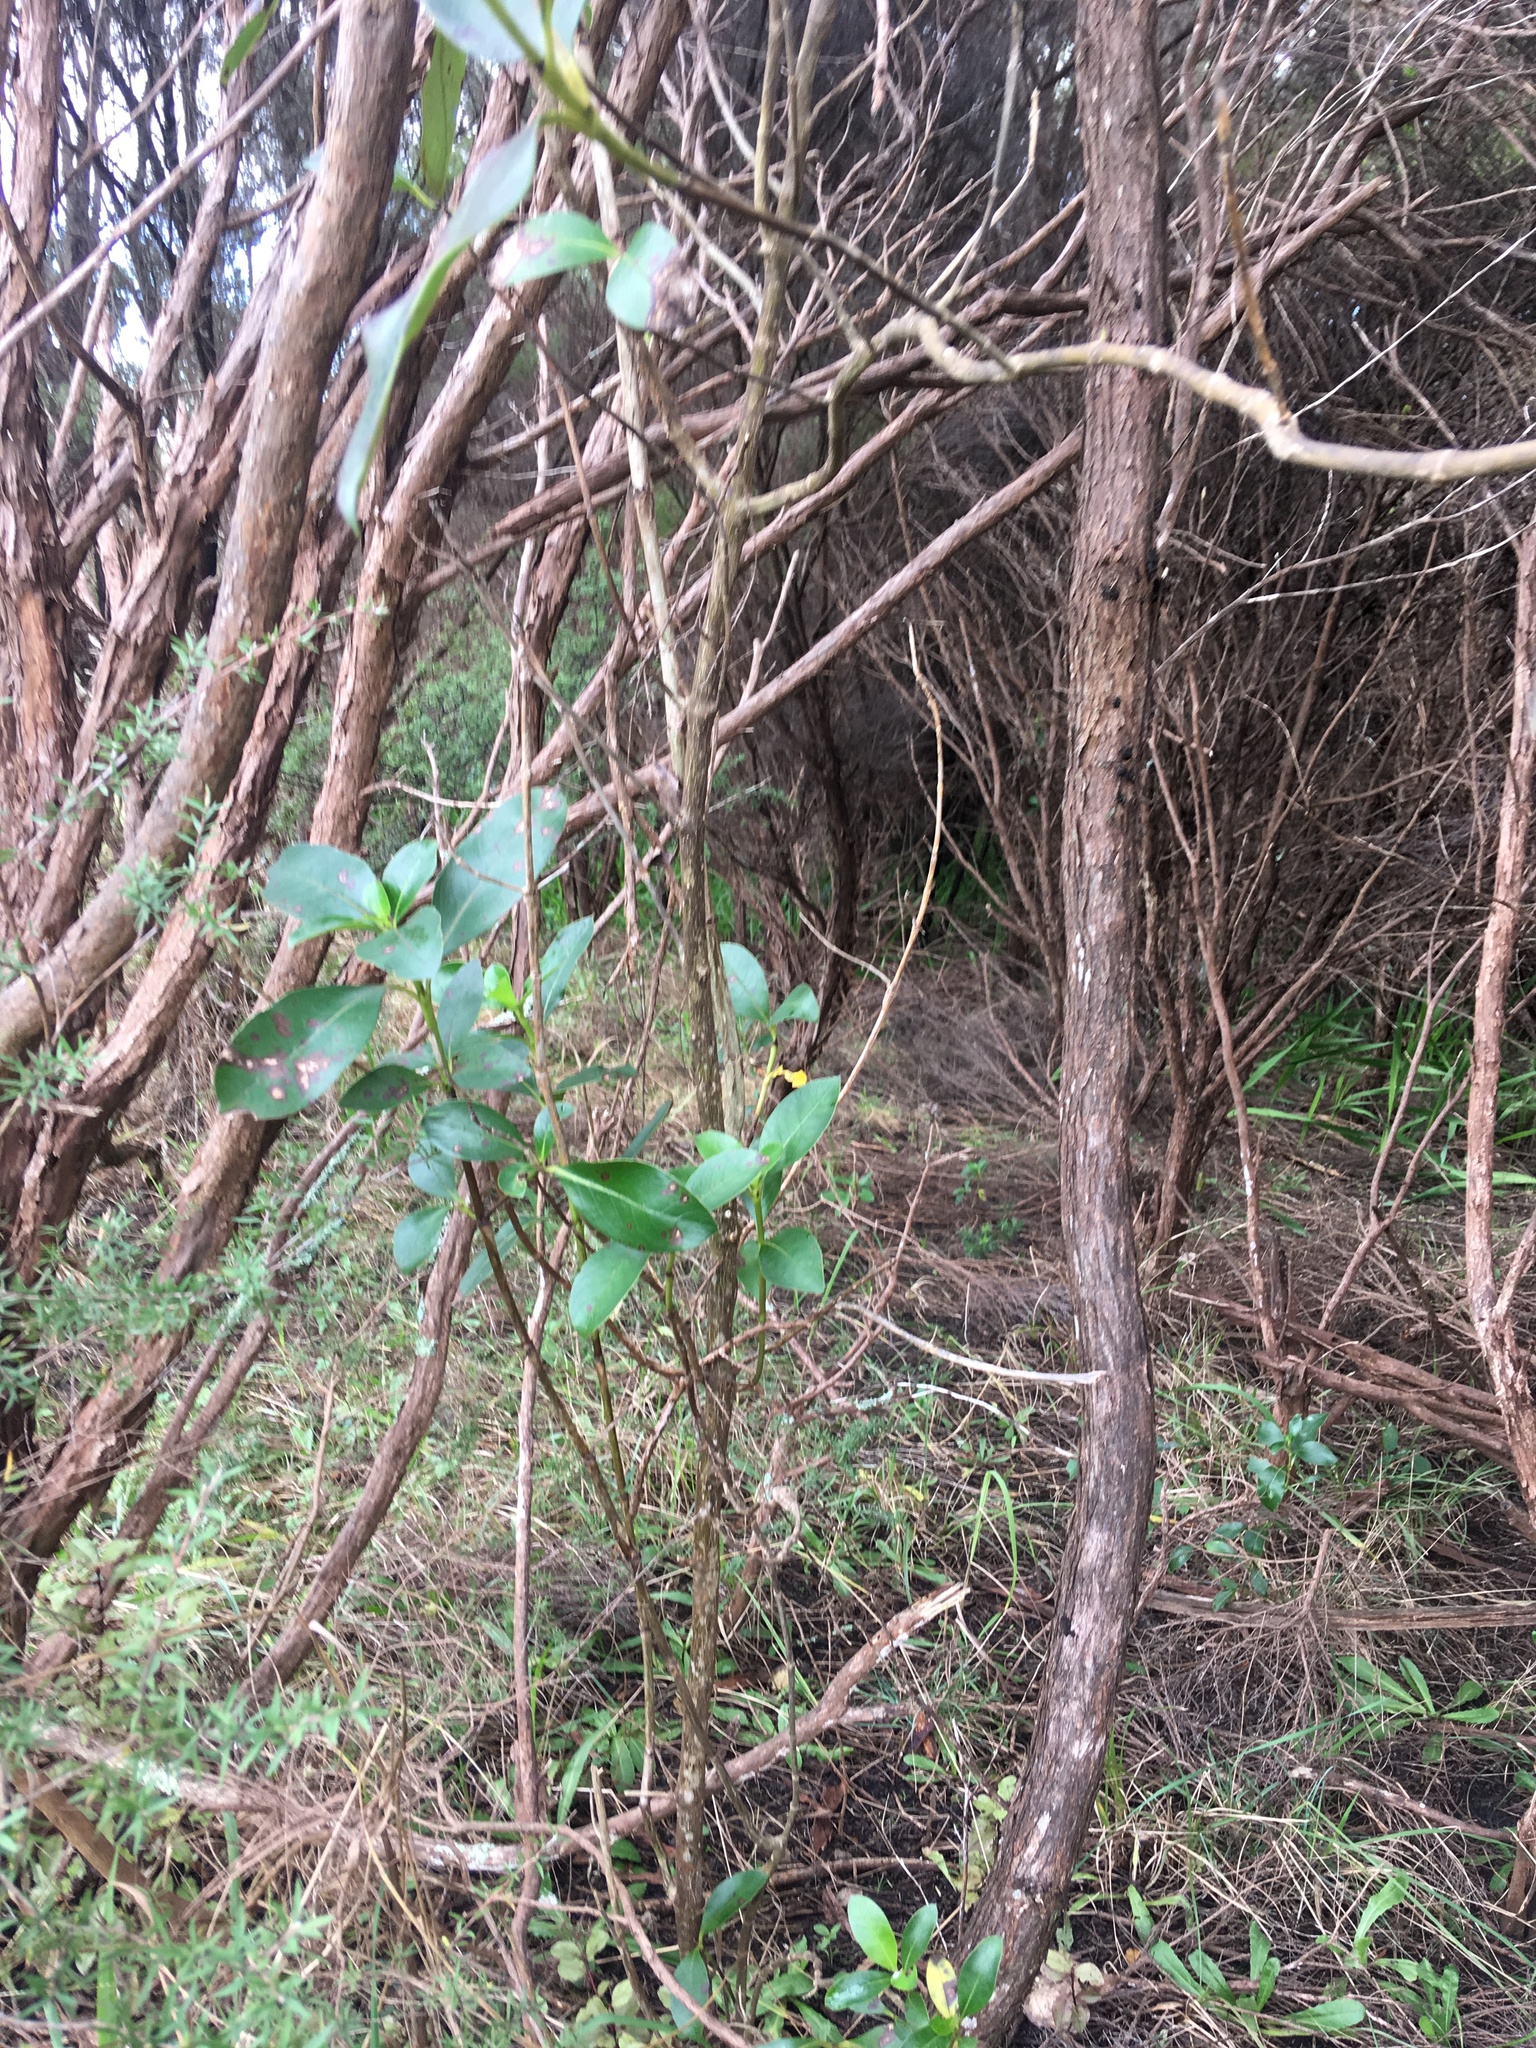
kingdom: Plantae
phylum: Tracheophyta
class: Magnoliopsida
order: Gentianales
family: Rubiaceae
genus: Coprosma
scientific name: Coprosma robusta
